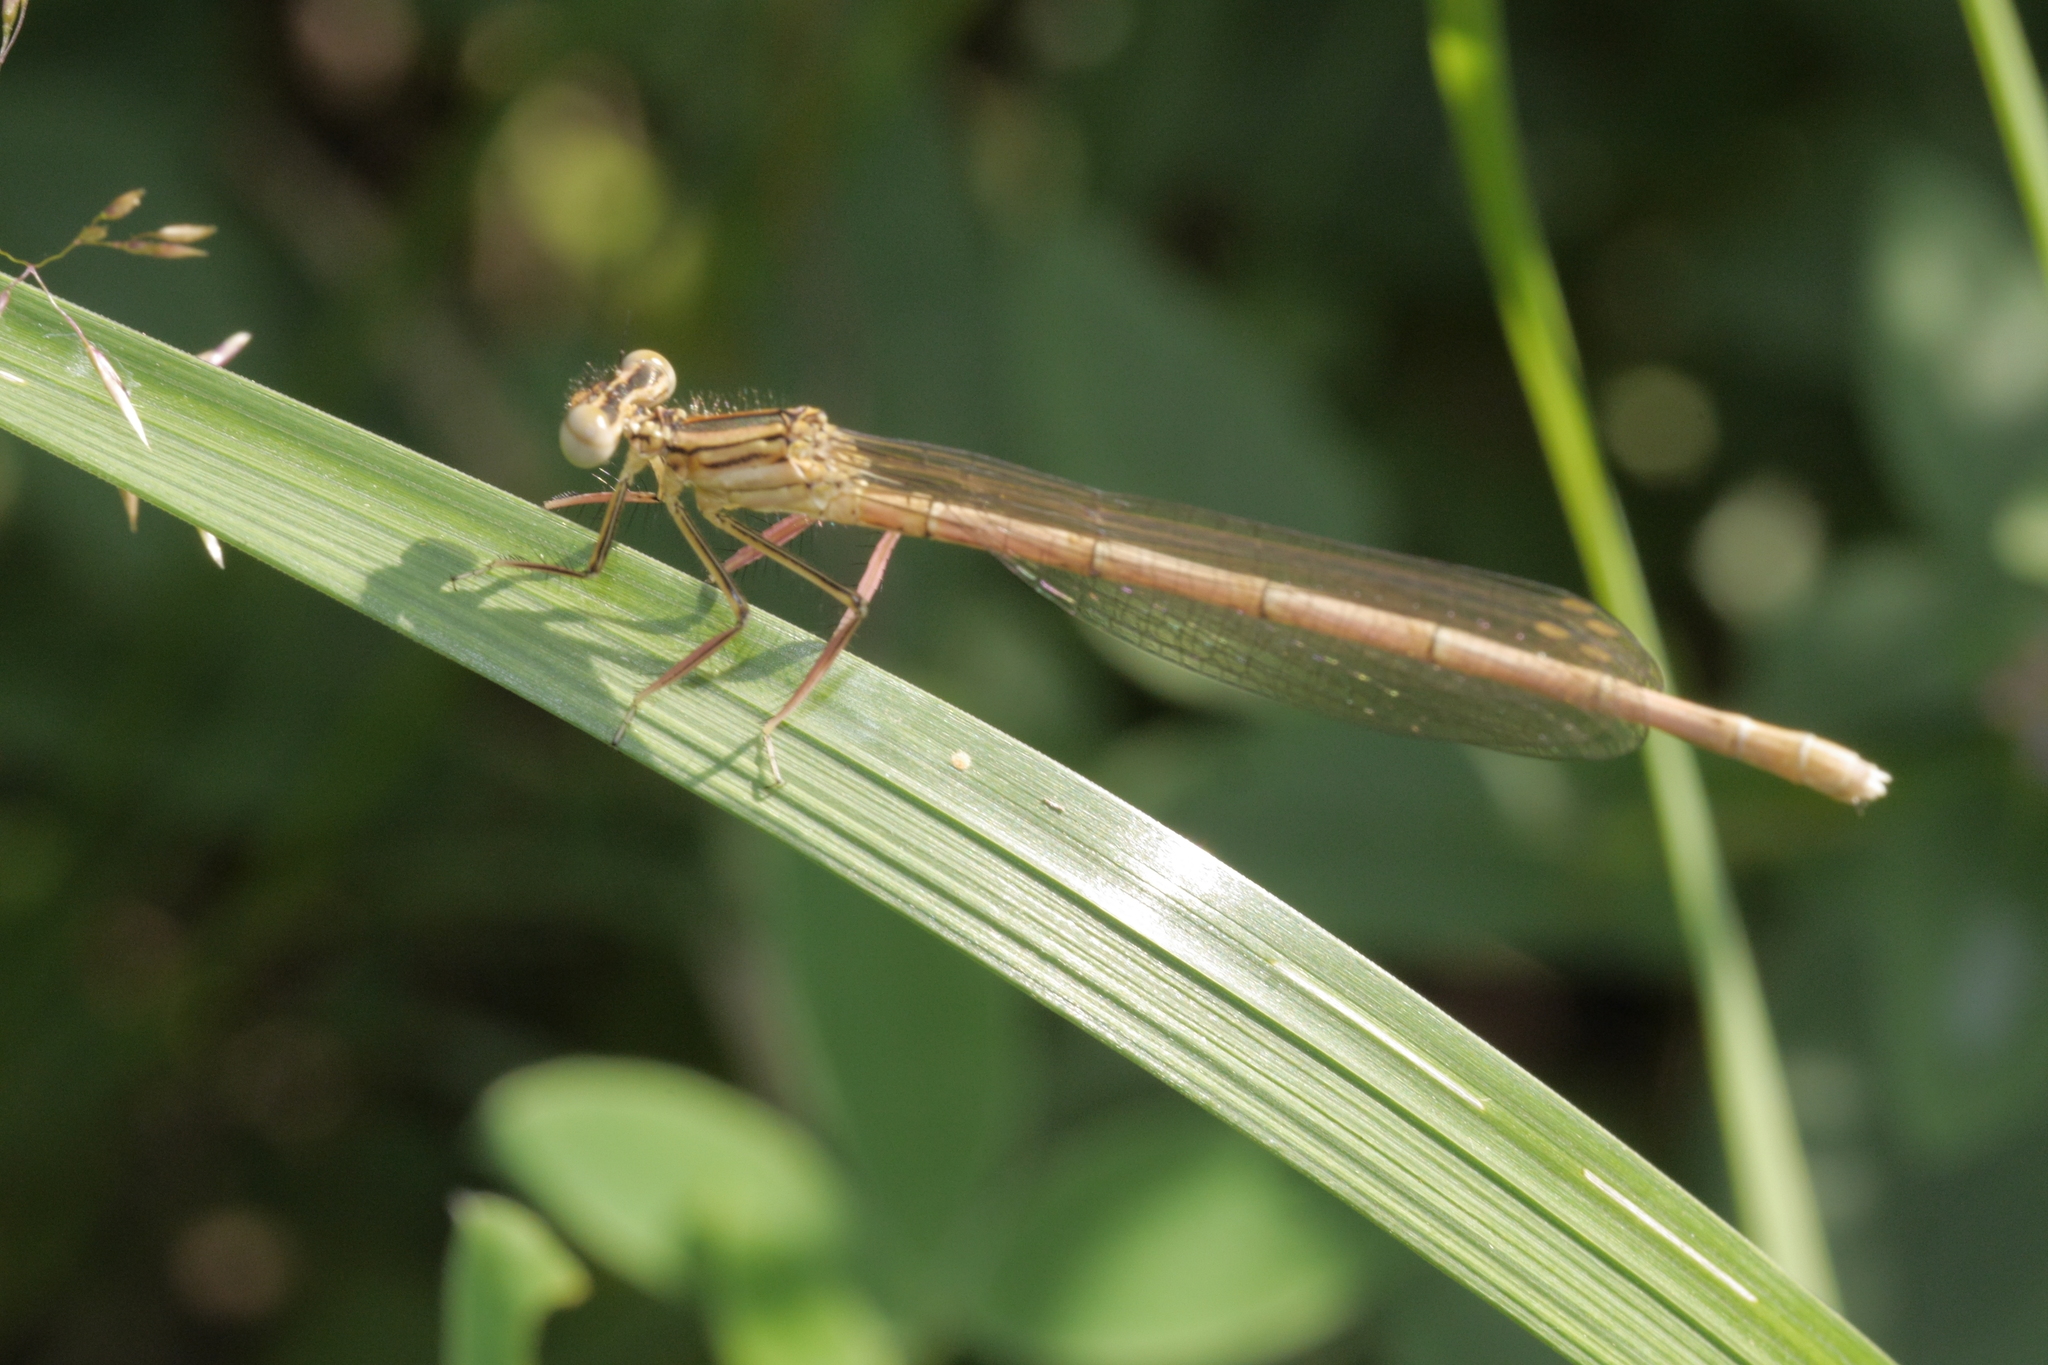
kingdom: Animalia
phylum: Arthropoda
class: Insecta
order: Odonata
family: Platycnemididae
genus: Platycnemis
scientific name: Platycnemis pennipes
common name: White-legged damselfly
